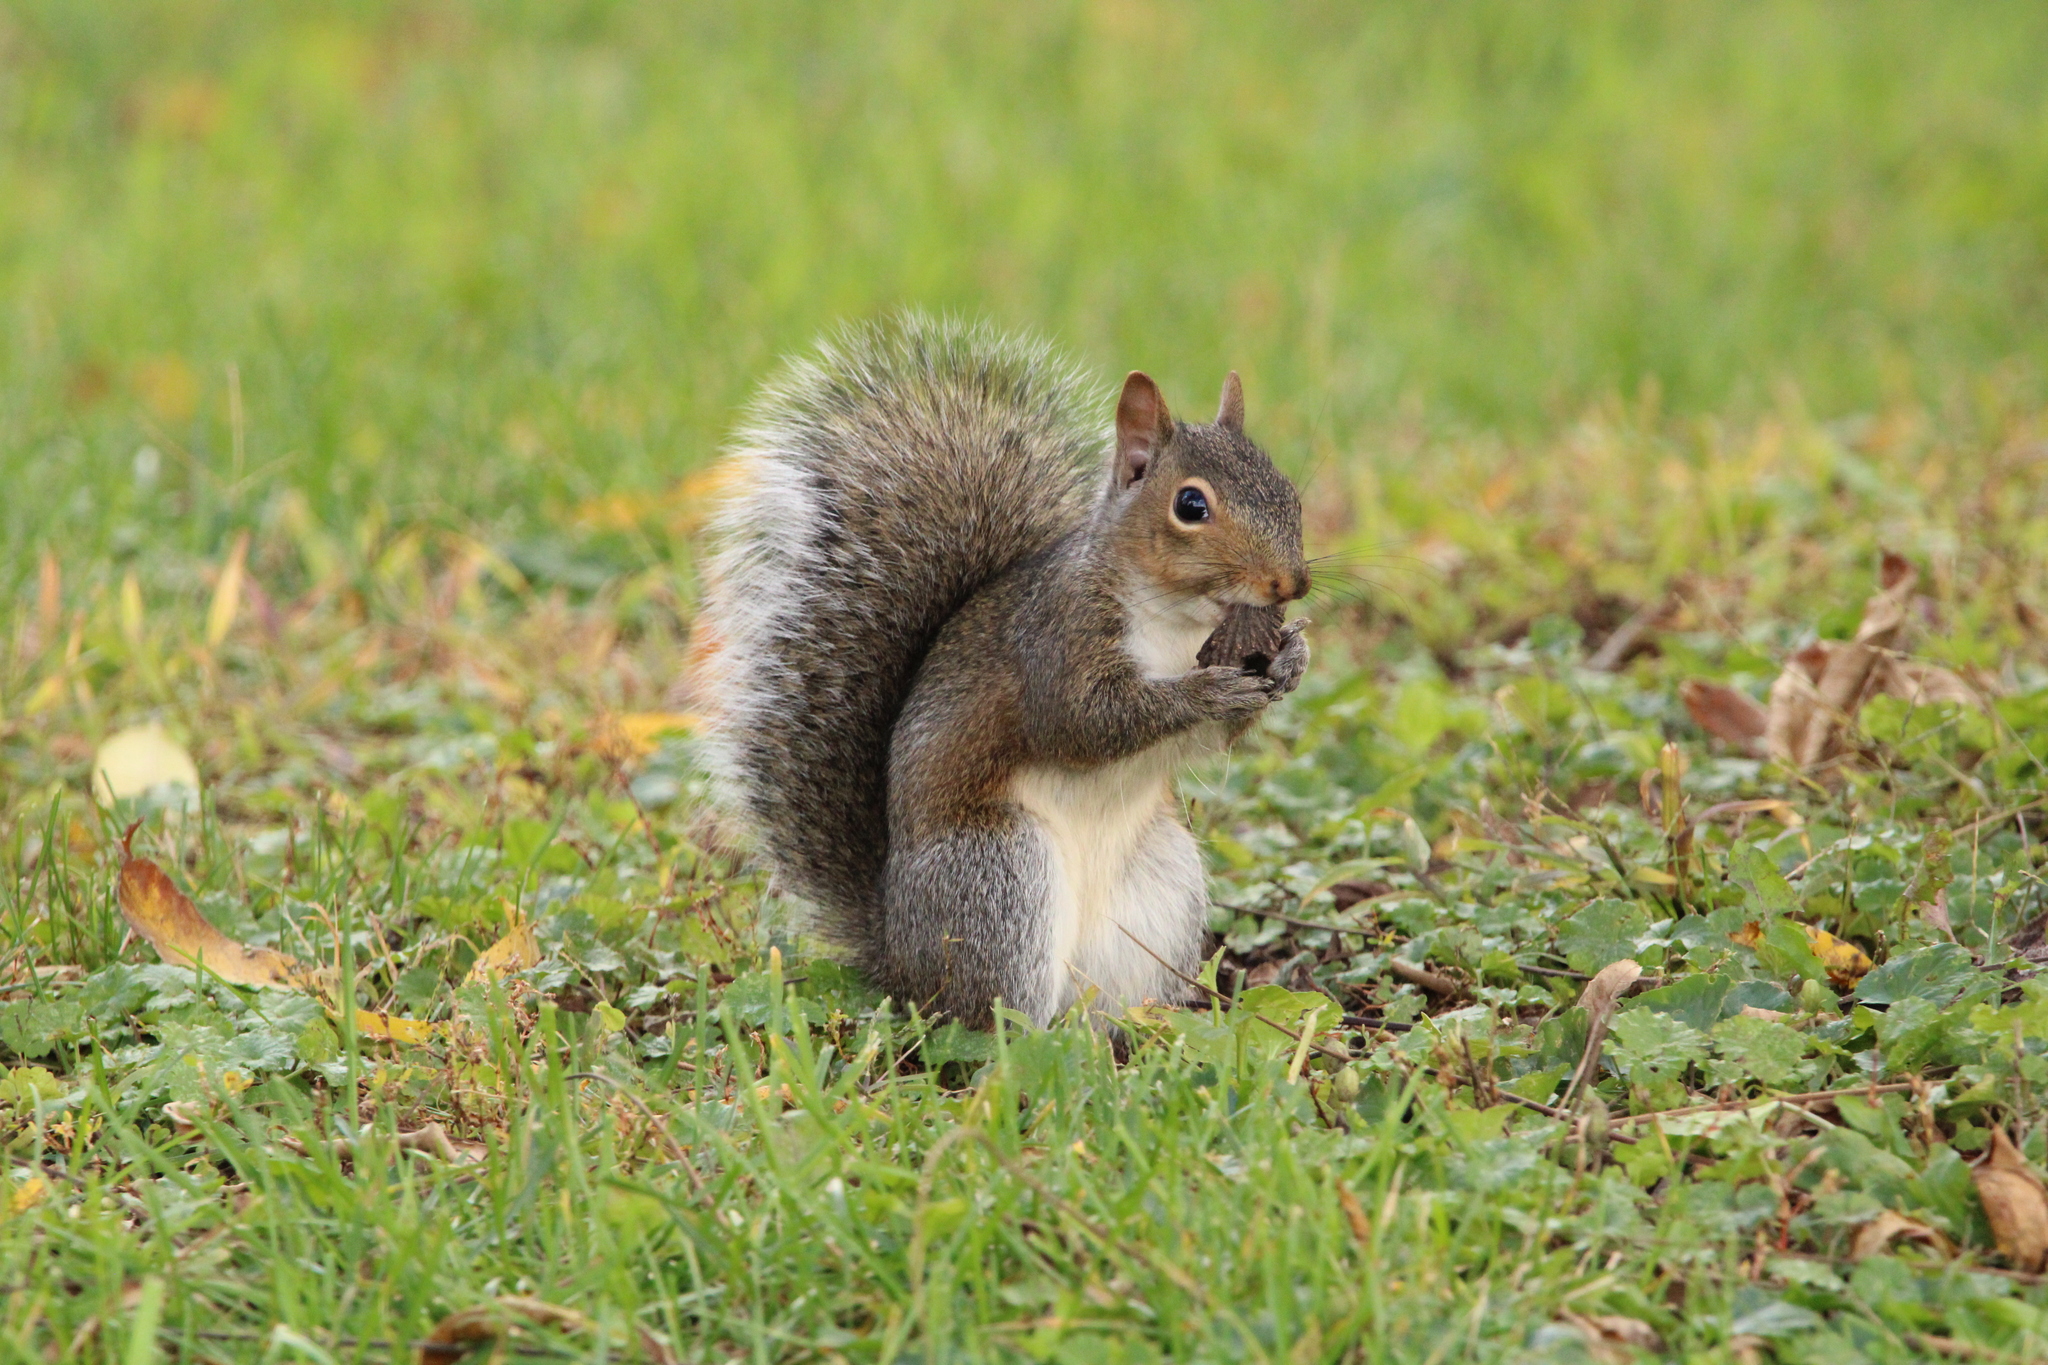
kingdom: Animalia
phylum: Chordata
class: Mammalia
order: Rodentia
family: Sciuridae
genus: Sciurus
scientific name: Sciurus carolinensis
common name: Eastern gray squirrel
